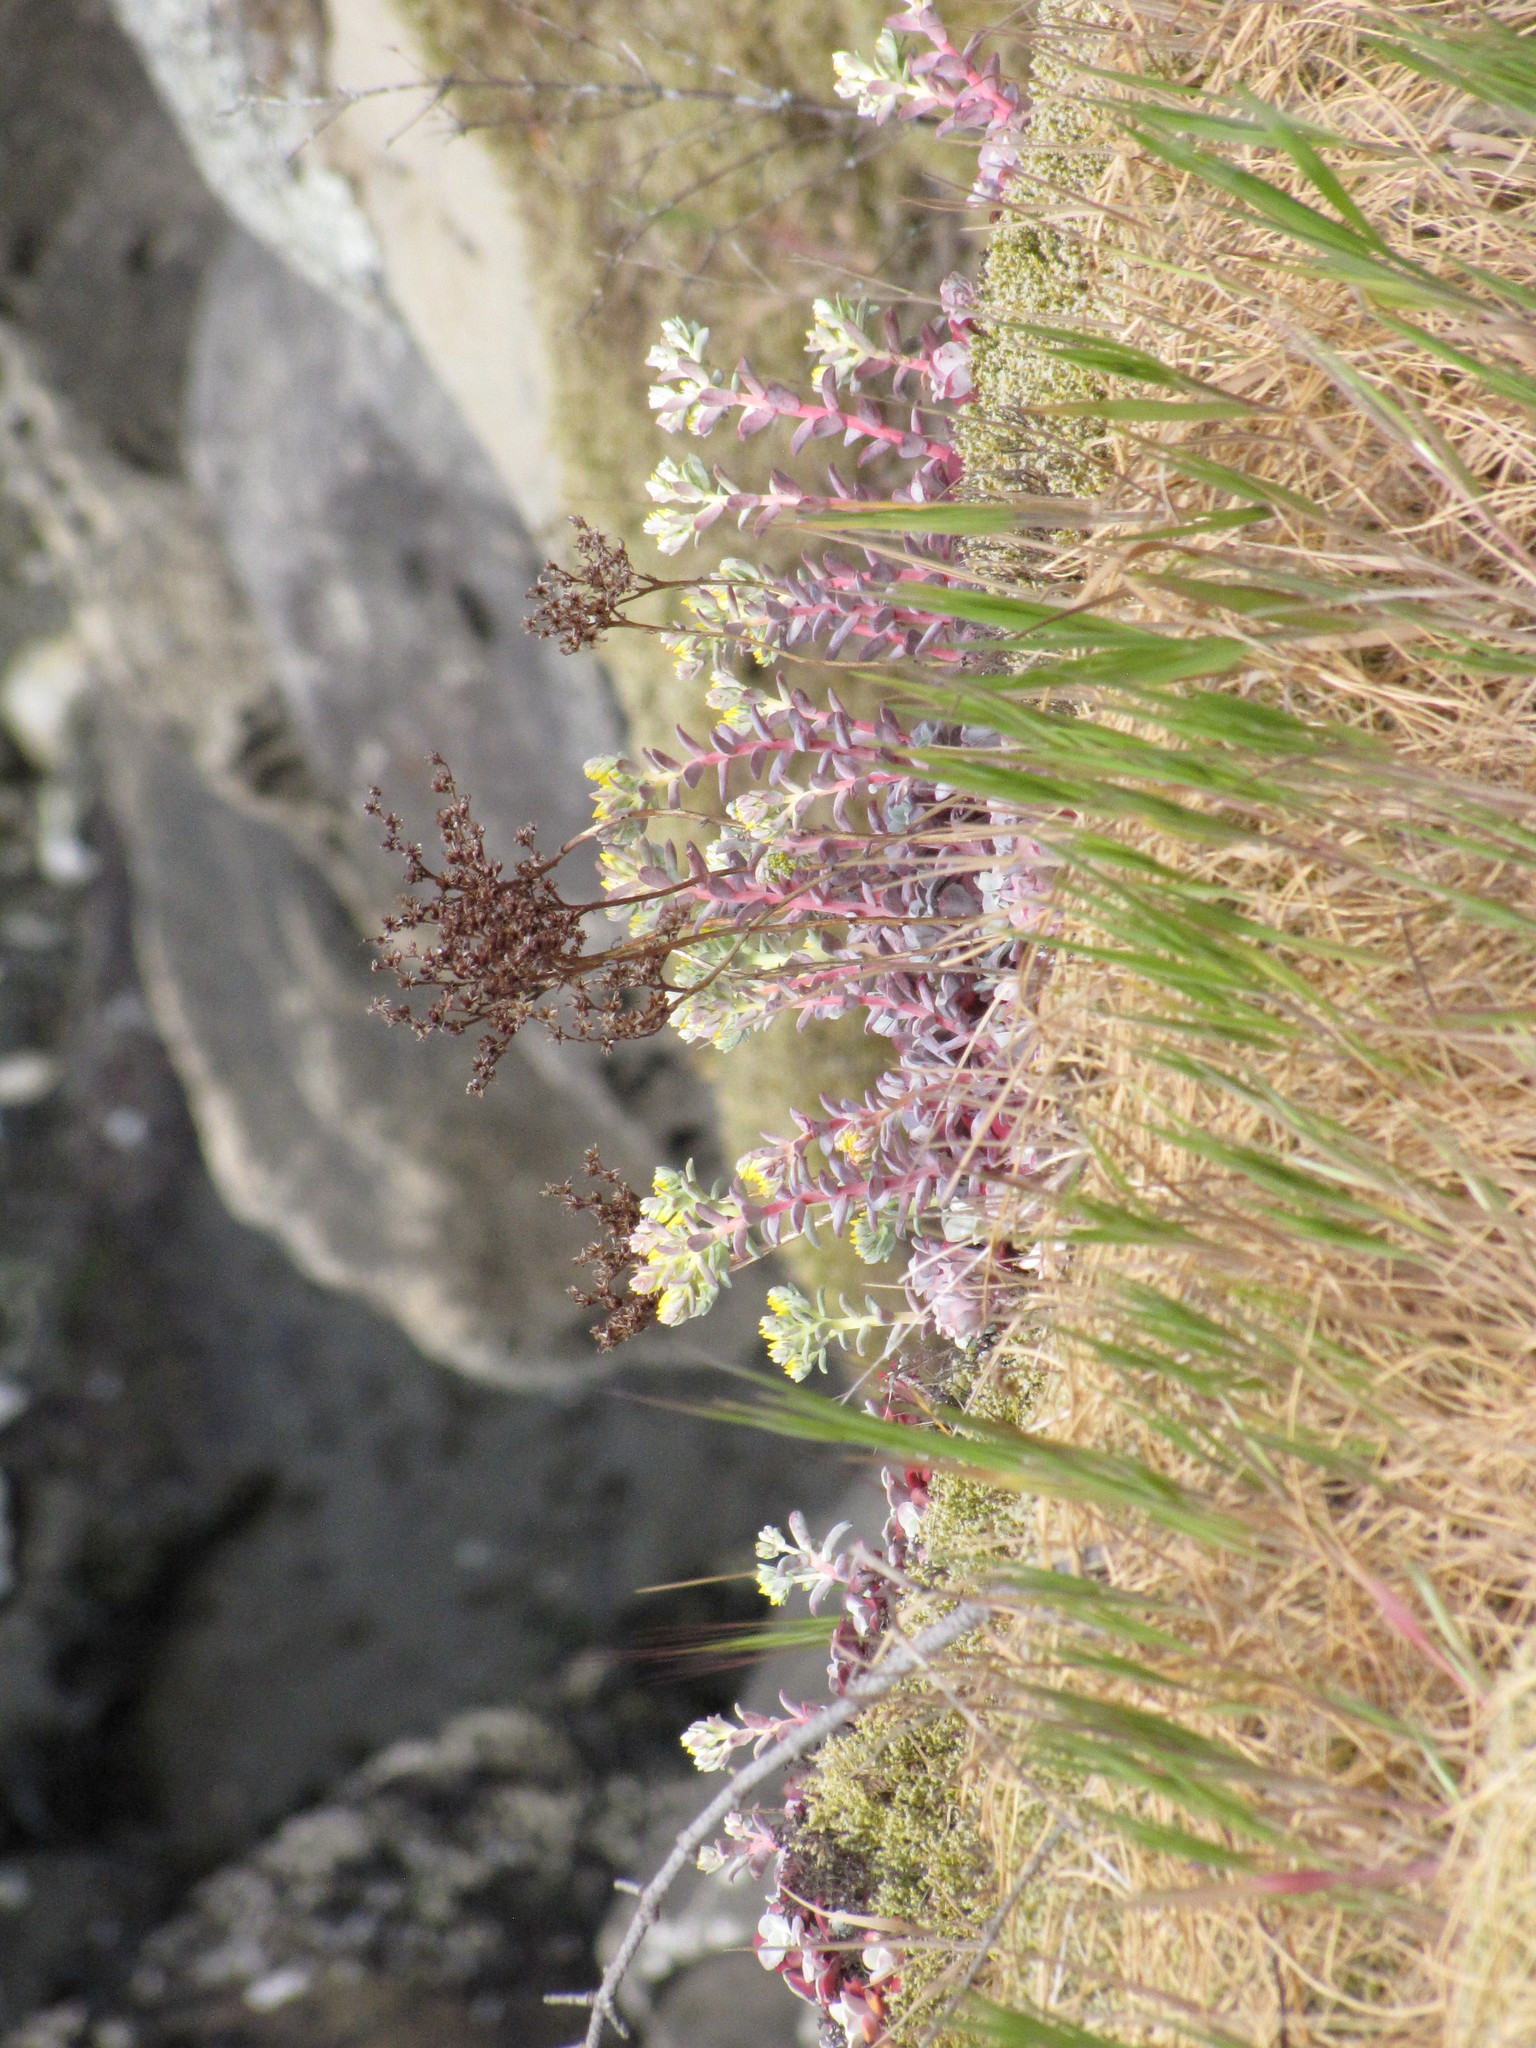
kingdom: Plantae
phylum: Tracheophyta
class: Magnoliopsida
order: Saxifragales
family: Crassulaceae
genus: Sedum
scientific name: Sedum spathulifolium
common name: Colorado stonecrop
